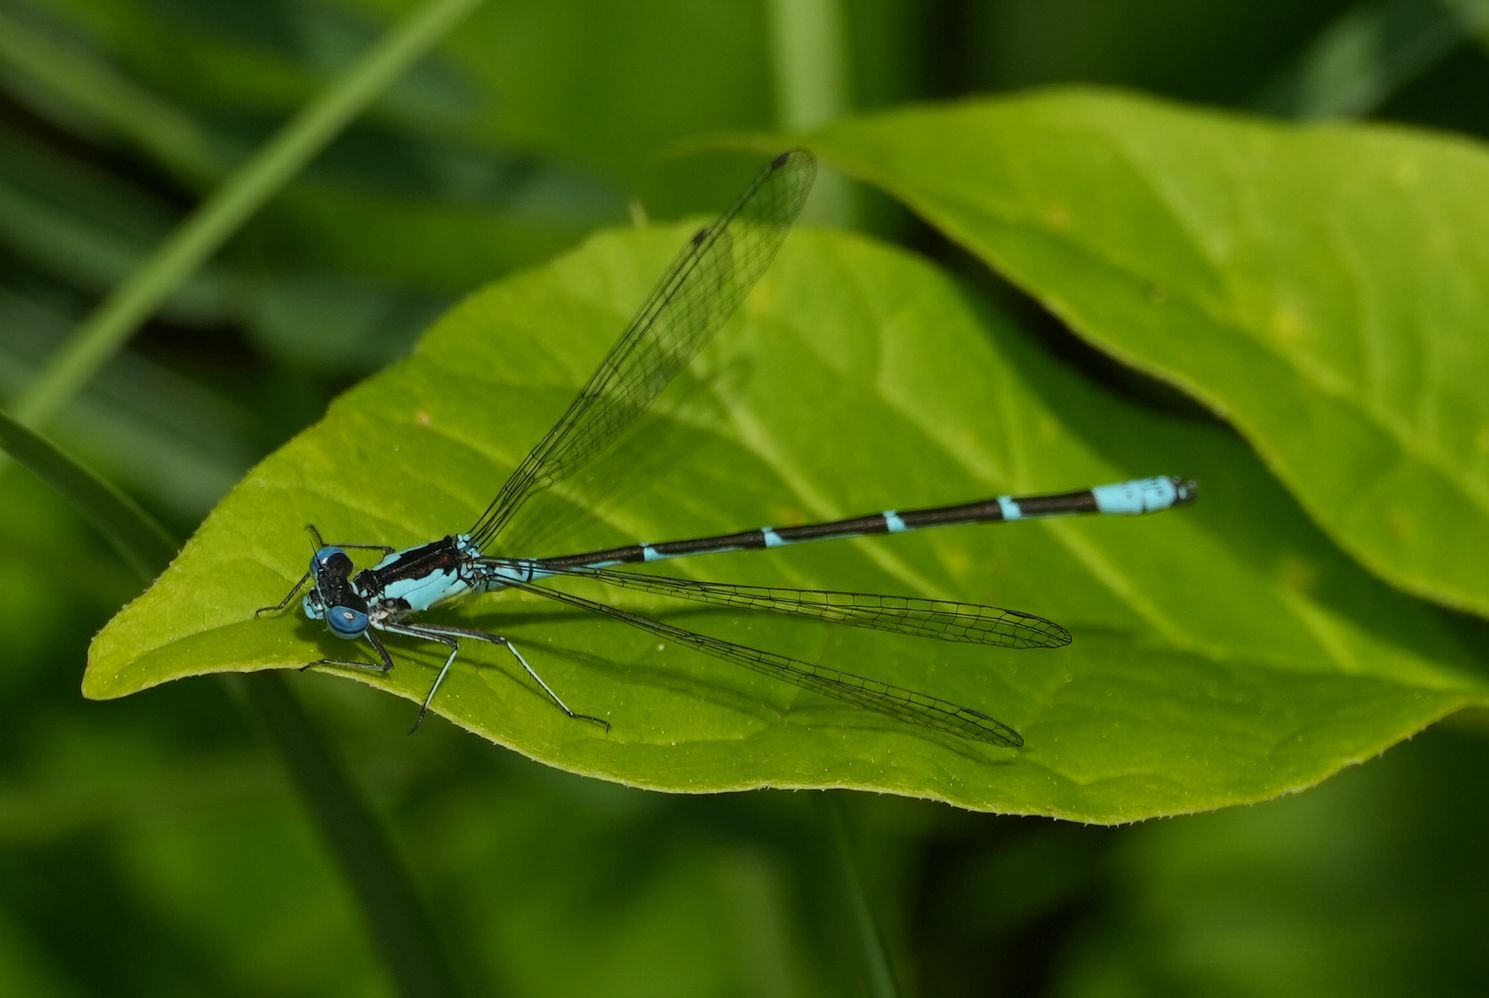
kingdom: Animalia
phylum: Arthropoda
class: Insecta
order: Odonata
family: Coenagrionidae
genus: Chromagrion
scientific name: Chromagrion conditum
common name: Aurora damsel
